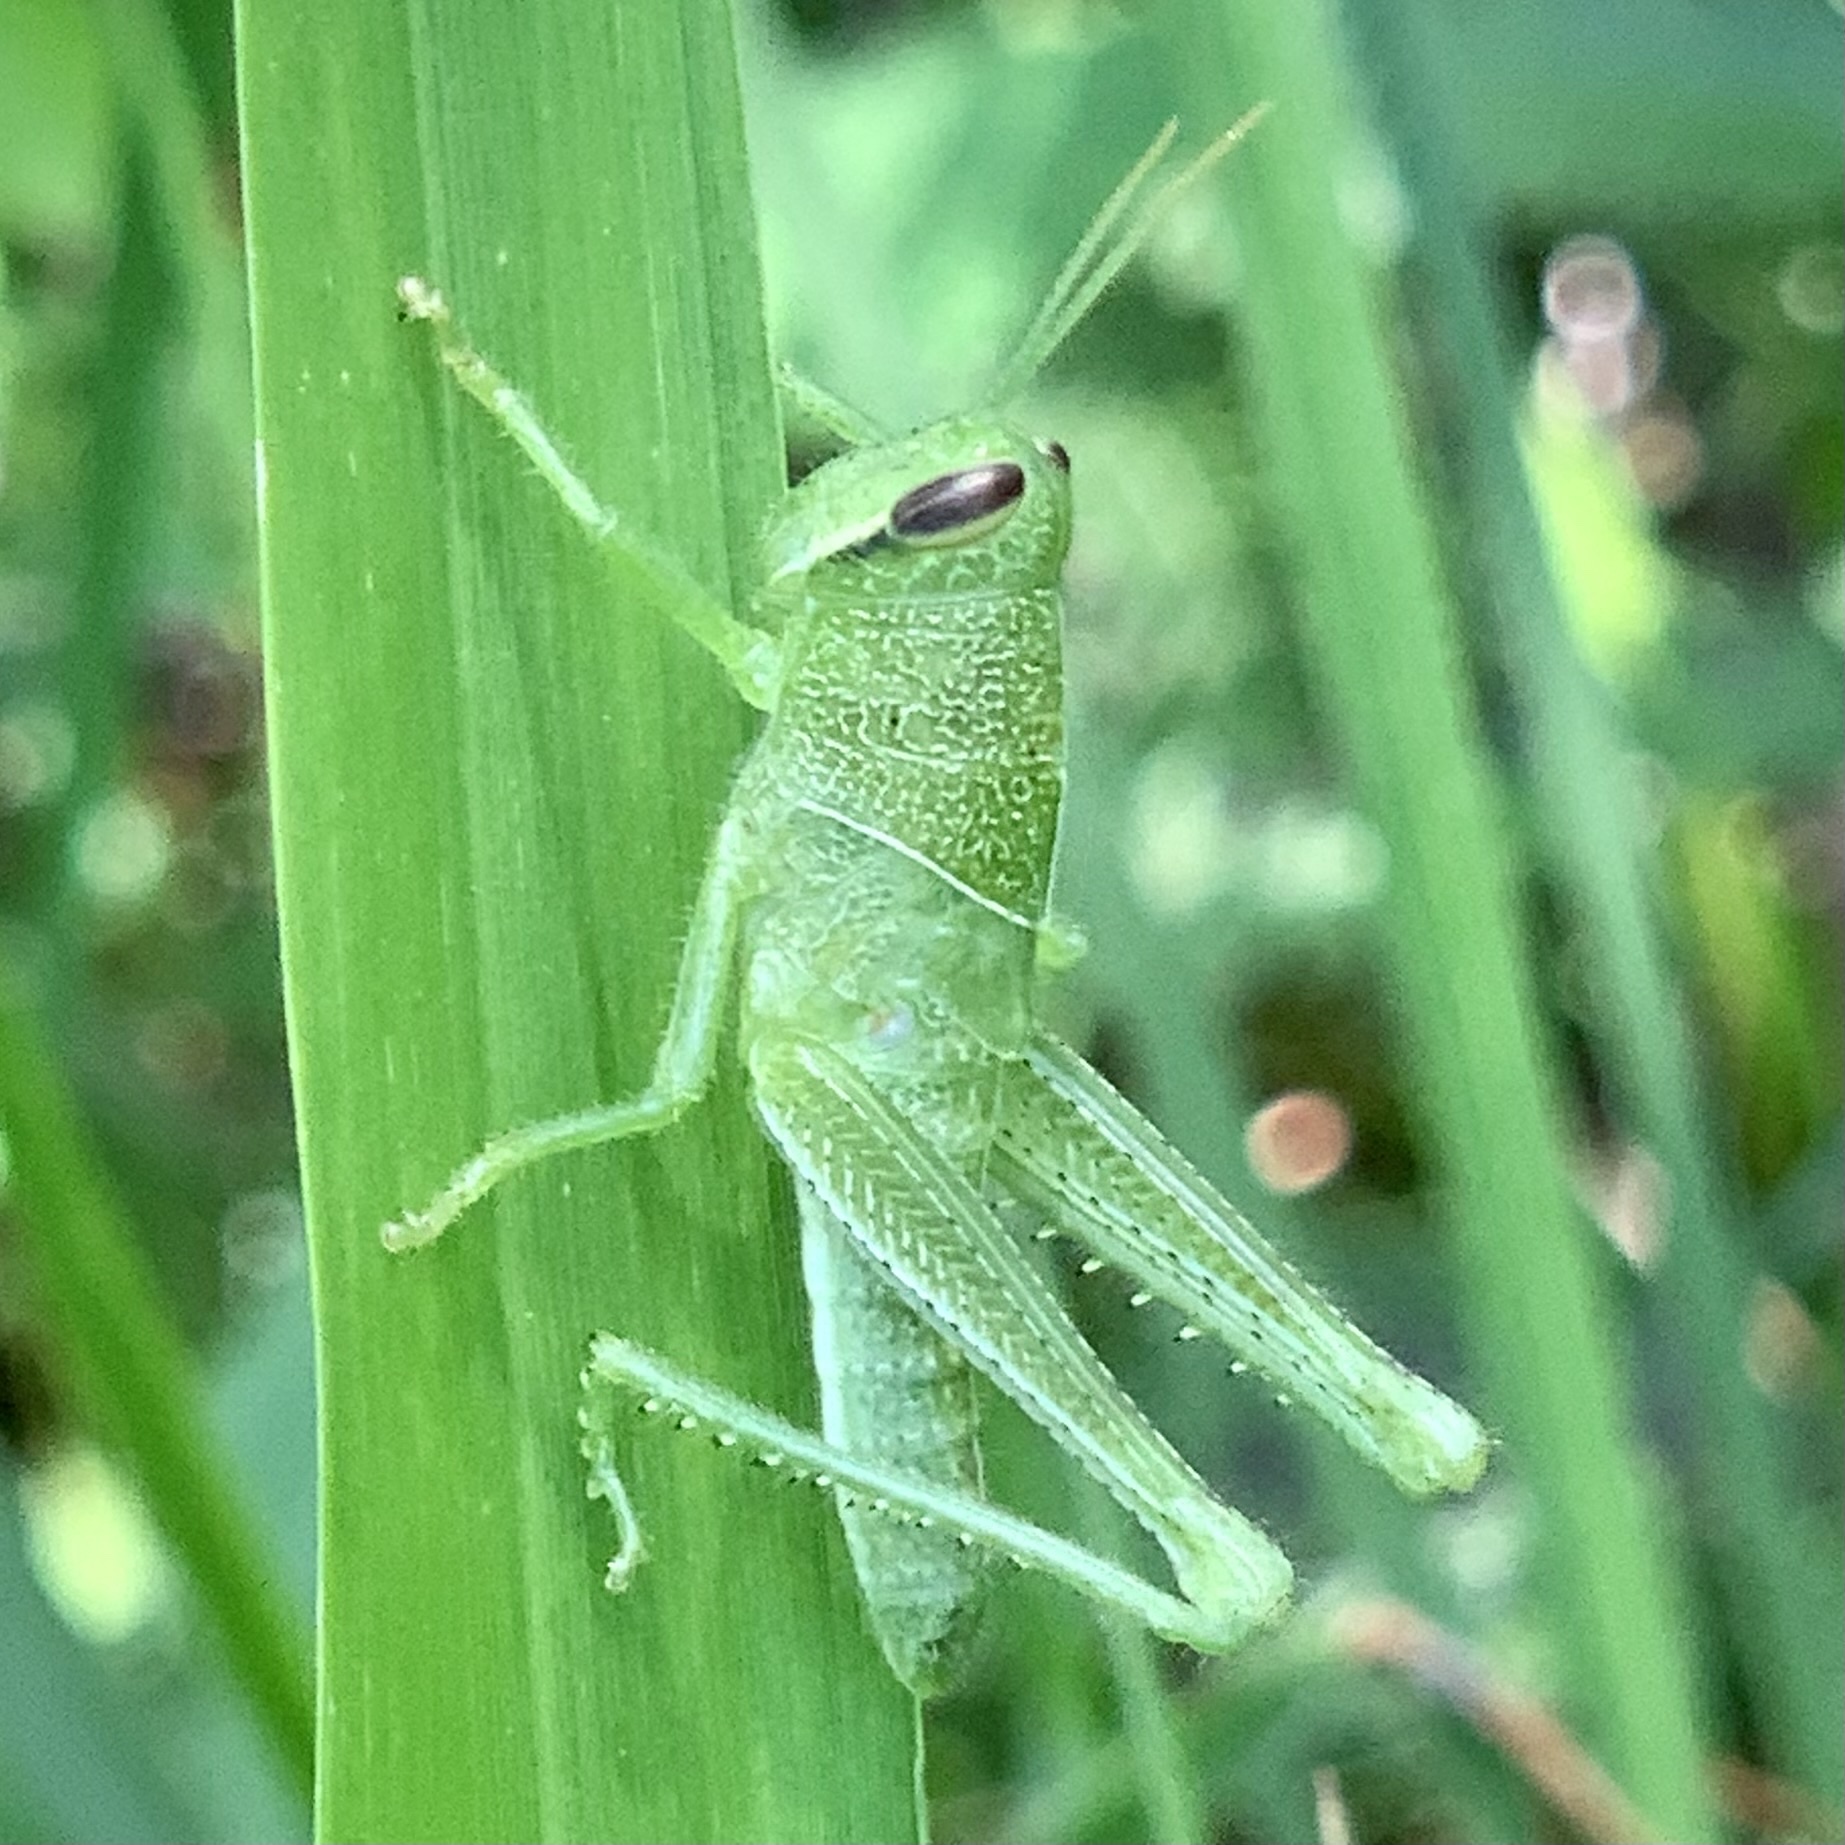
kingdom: Animalia
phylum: Arthropoda
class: Insecta
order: Orthoptera
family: Acrididae
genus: Schistocerca
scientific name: Schistocerca obscura
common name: Obscure bird grasshopper
